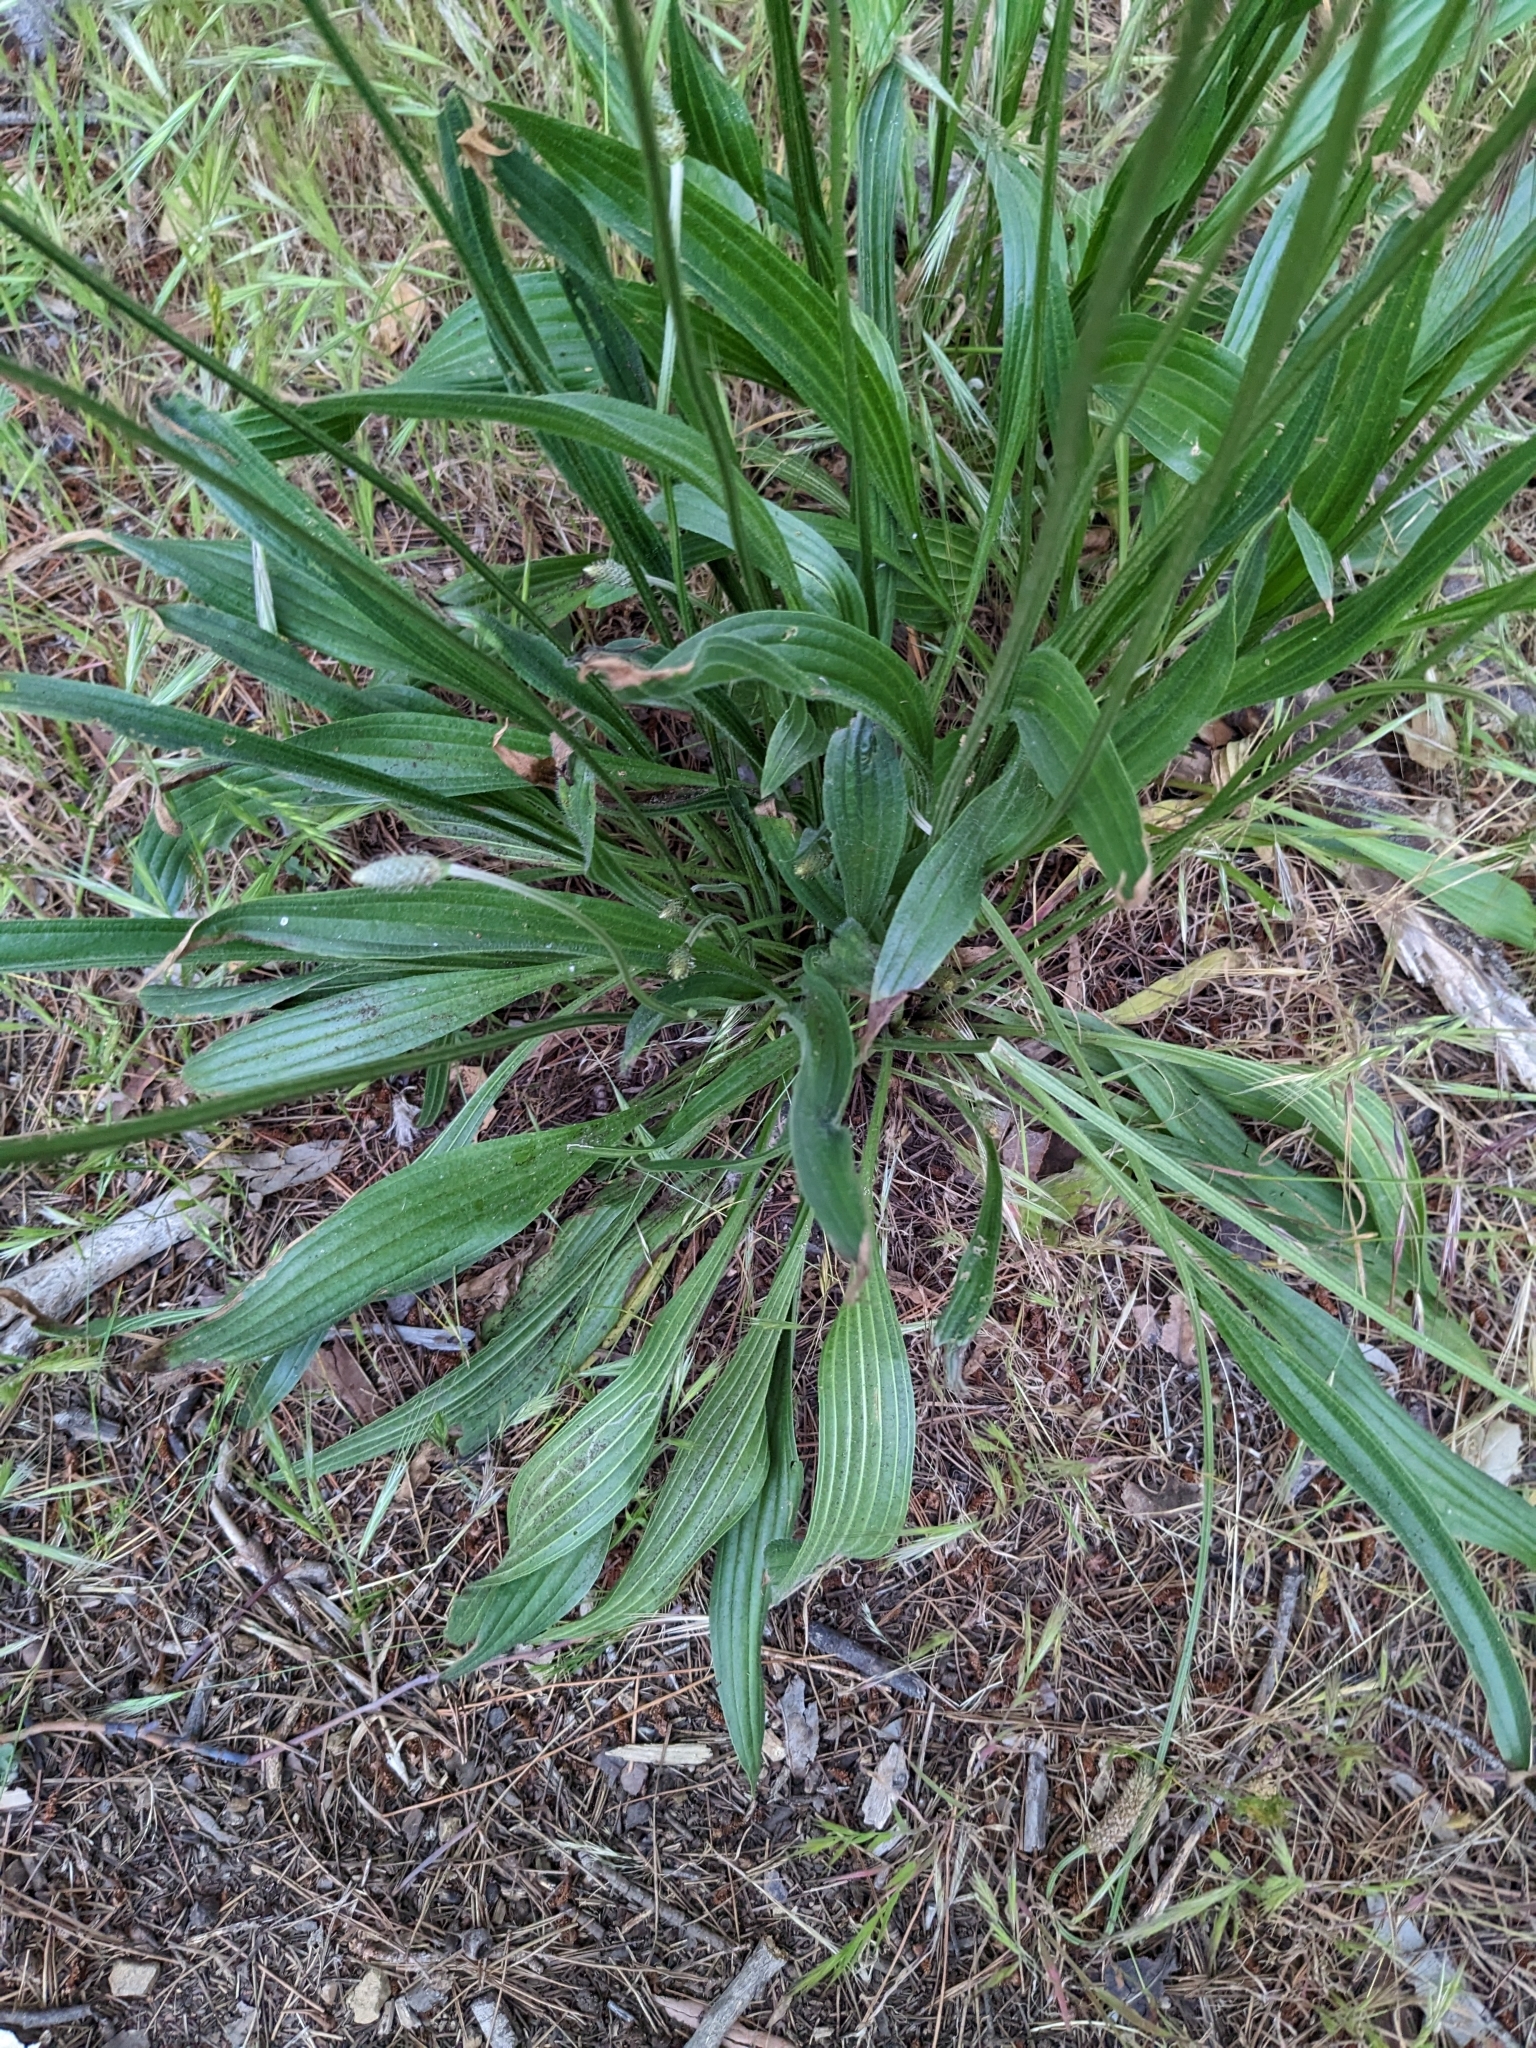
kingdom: Plantae
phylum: Tracheophyta
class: Magnoliopsida
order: Lamiales
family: Plantaginaceae
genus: Plantago
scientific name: Plantago lanceolata
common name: Ribwort plantain
